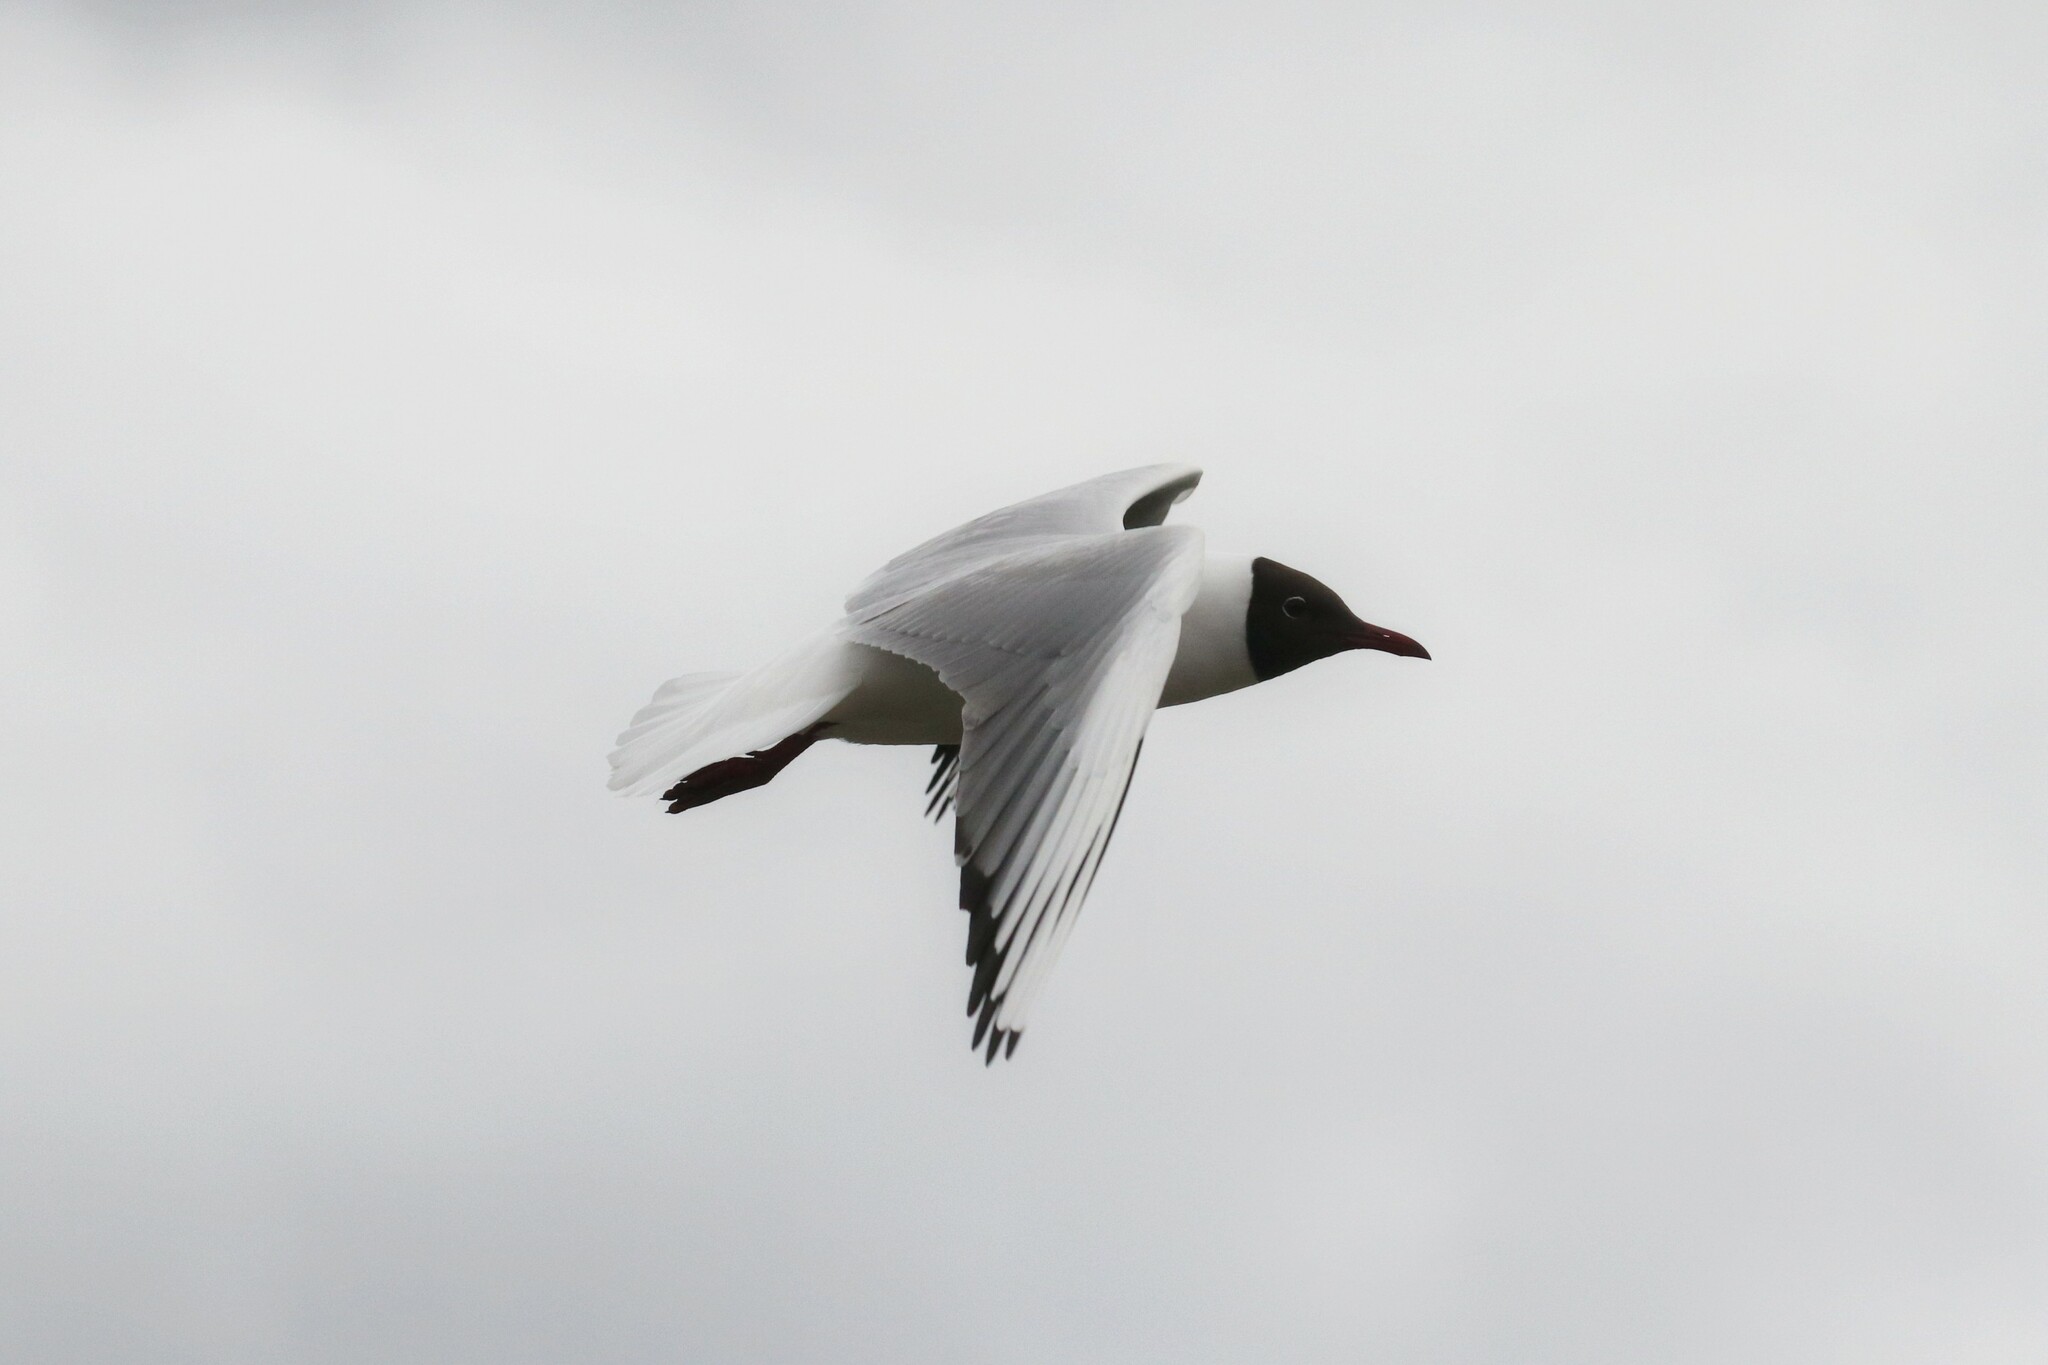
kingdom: Animalia
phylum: Chordata
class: Aves
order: Charadriiformes
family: Laridae
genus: Chroicocephalus
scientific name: Chroicocephalus ridibundus
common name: Black-headed gull
